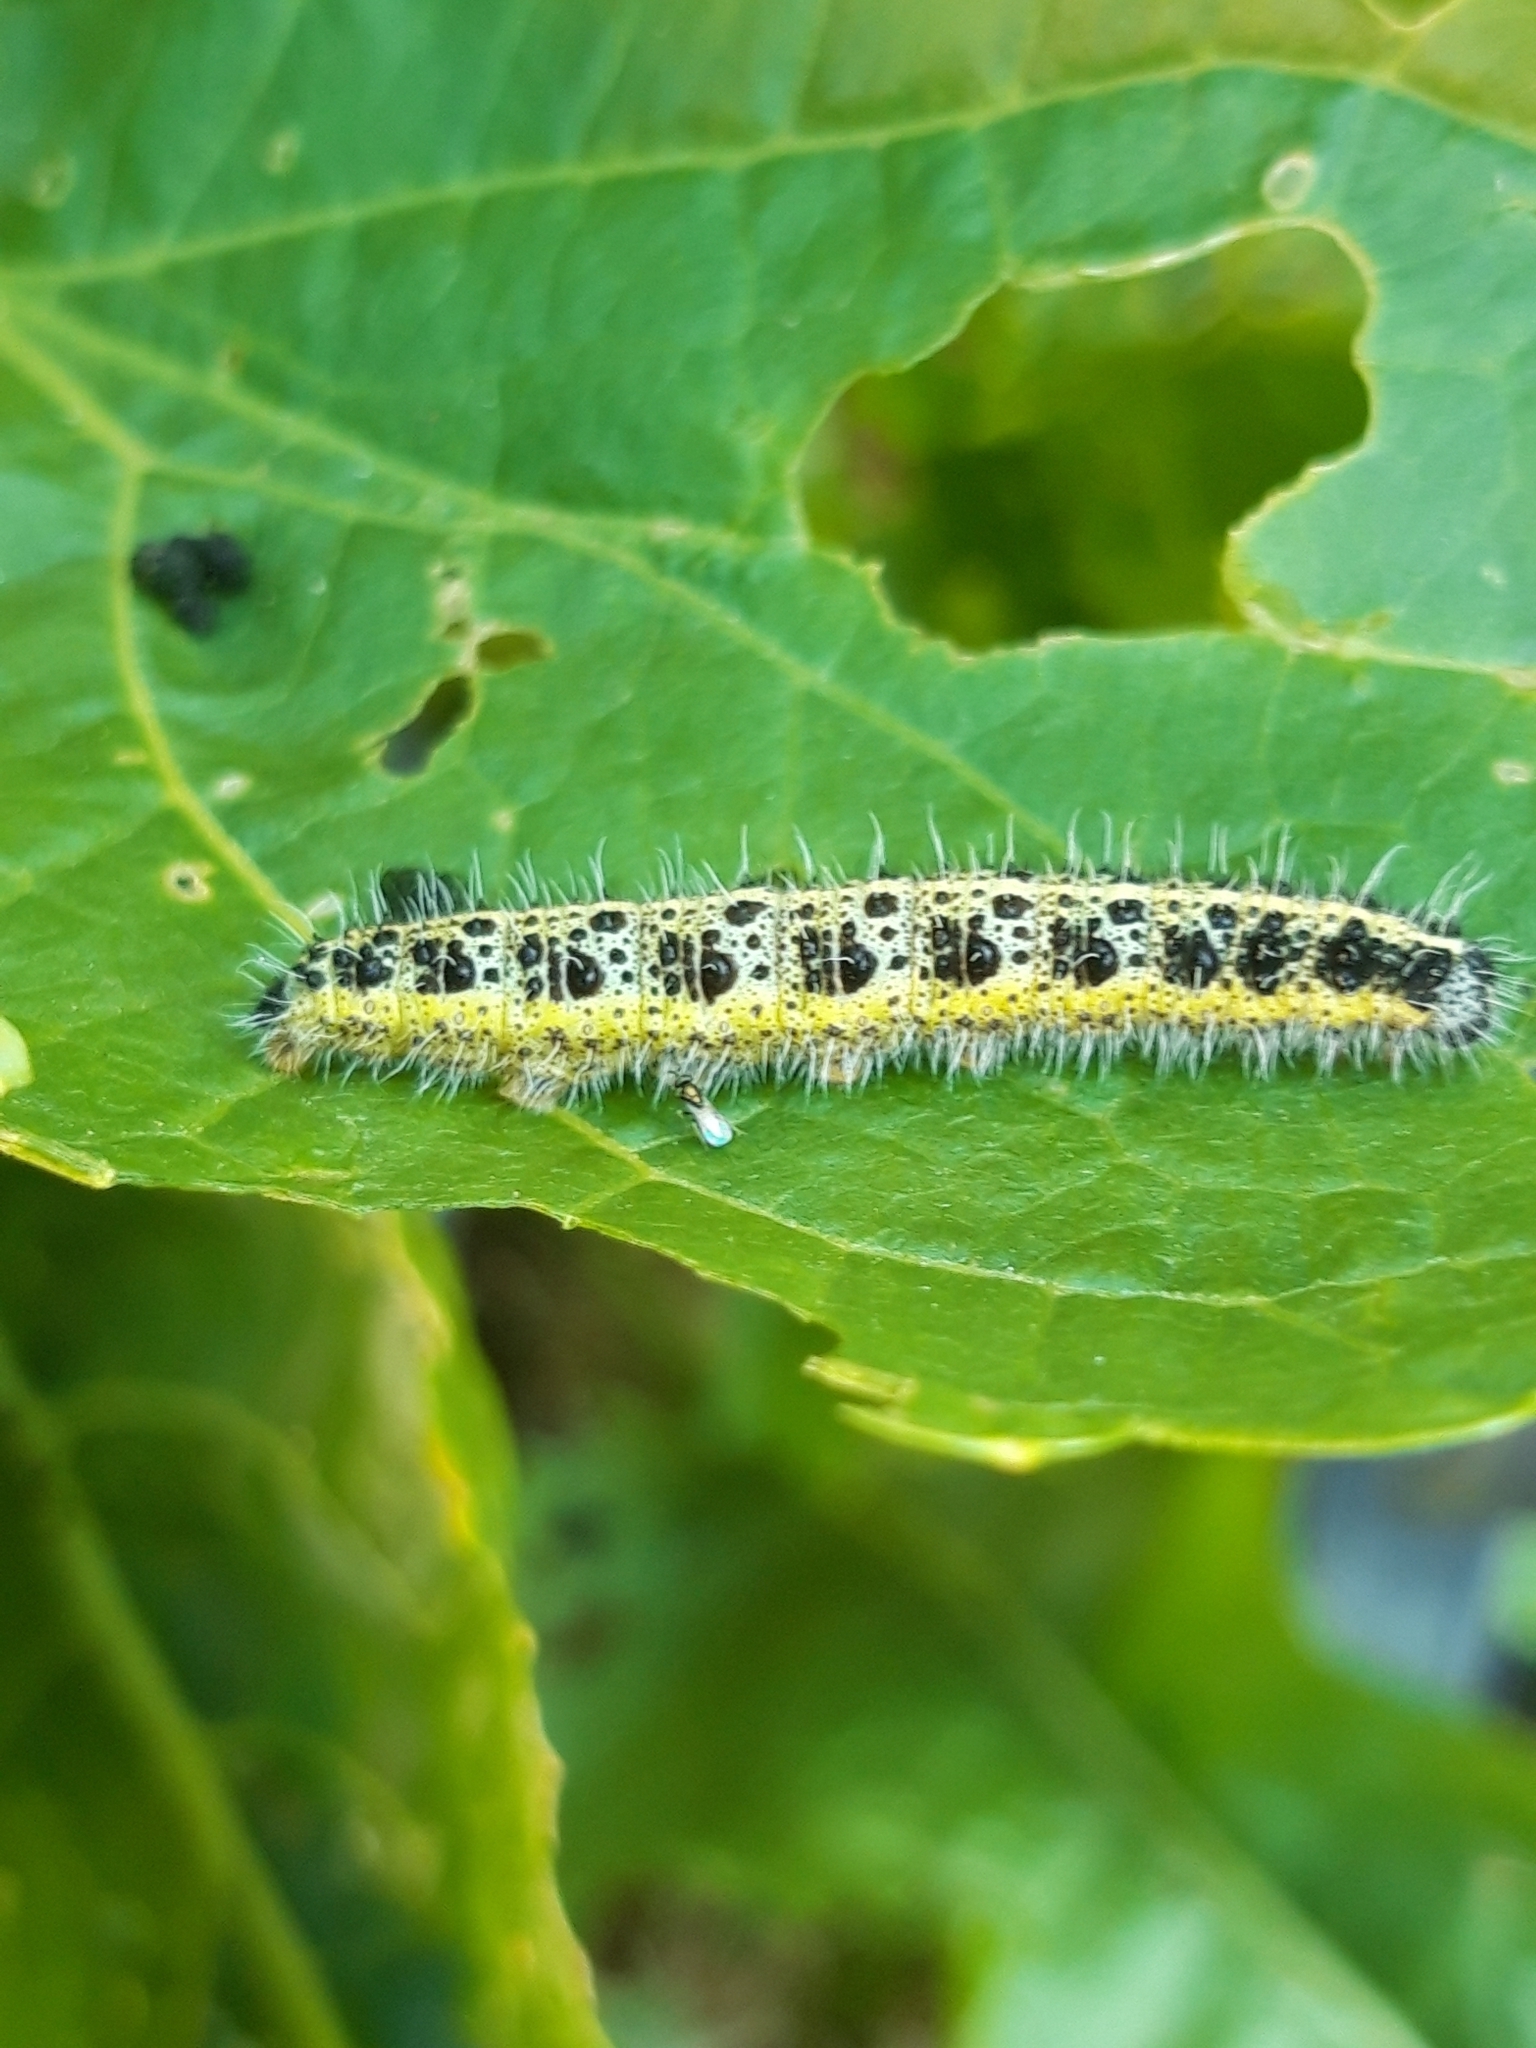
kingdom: Animalia
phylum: Arthropoda
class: Insecta
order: Lepidoptera
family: Pieridae
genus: Pieris
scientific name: Pieris brassicae
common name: Large white
